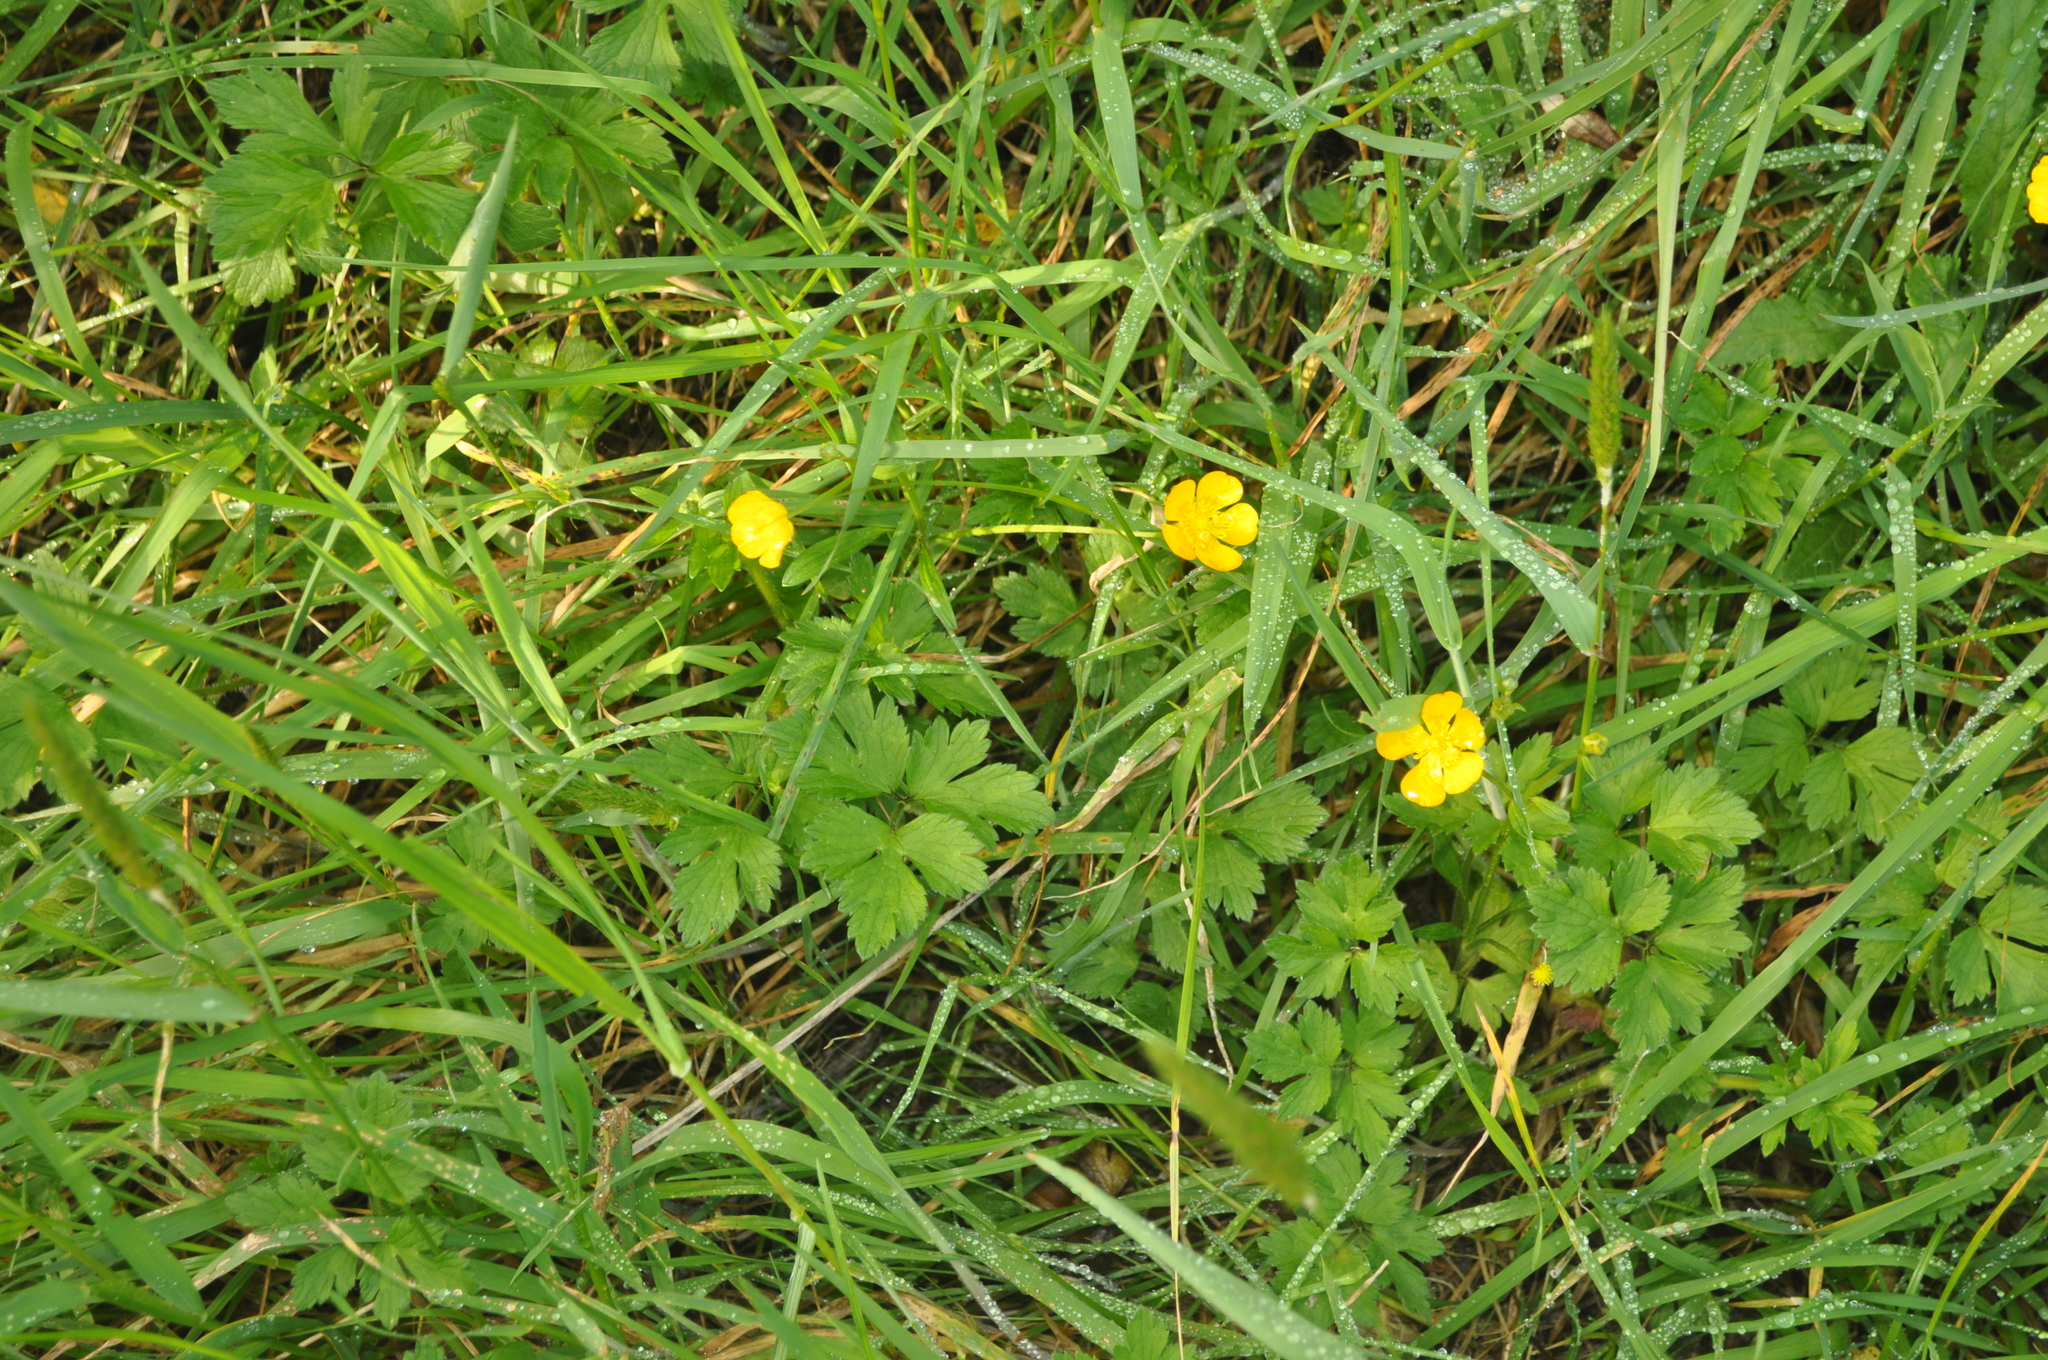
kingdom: Plantae
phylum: Tracheophyta
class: Magnoliopsida
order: Ranunculales
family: Ranunculaceae
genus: Ranunculus
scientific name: Ranunculus repens
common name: Creeping buttercup
